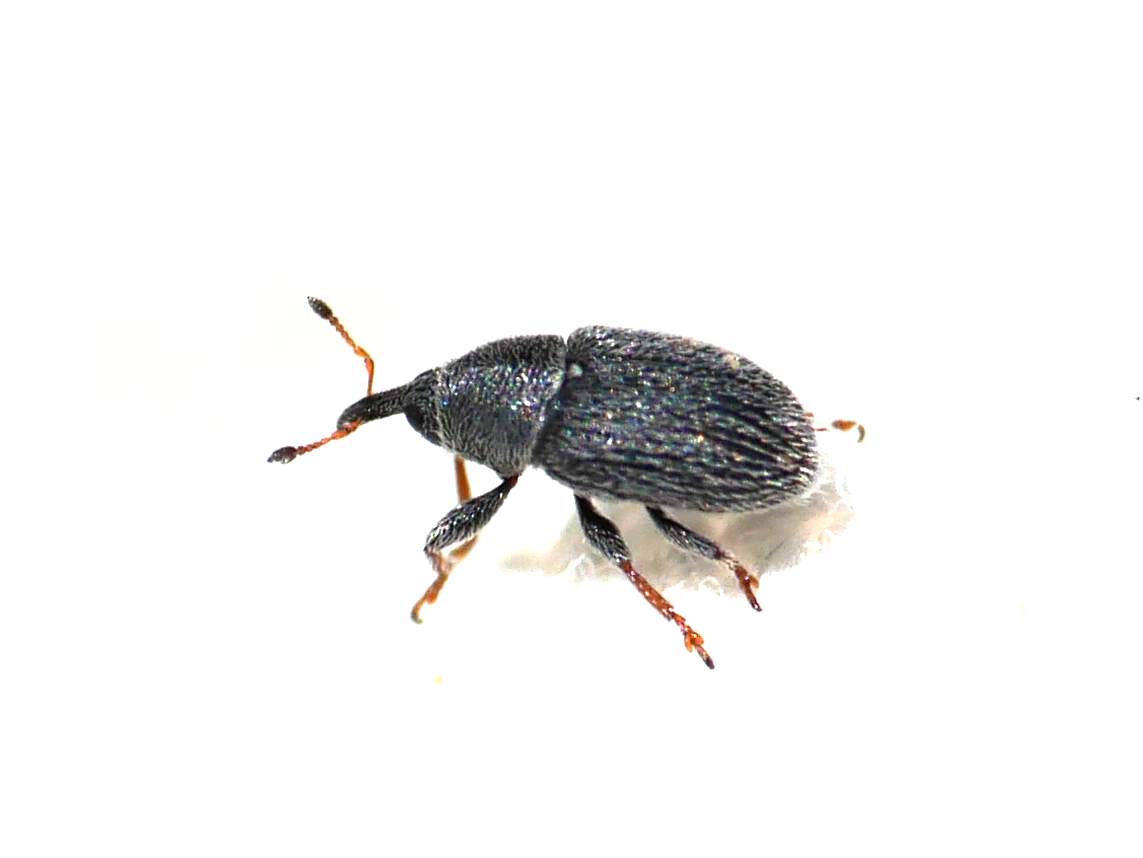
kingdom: Animalia
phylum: Arthropoda
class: Insecta
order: Coleoptera
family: Curculionidae
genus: Mecinus
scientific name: Mecinus pascuorum
